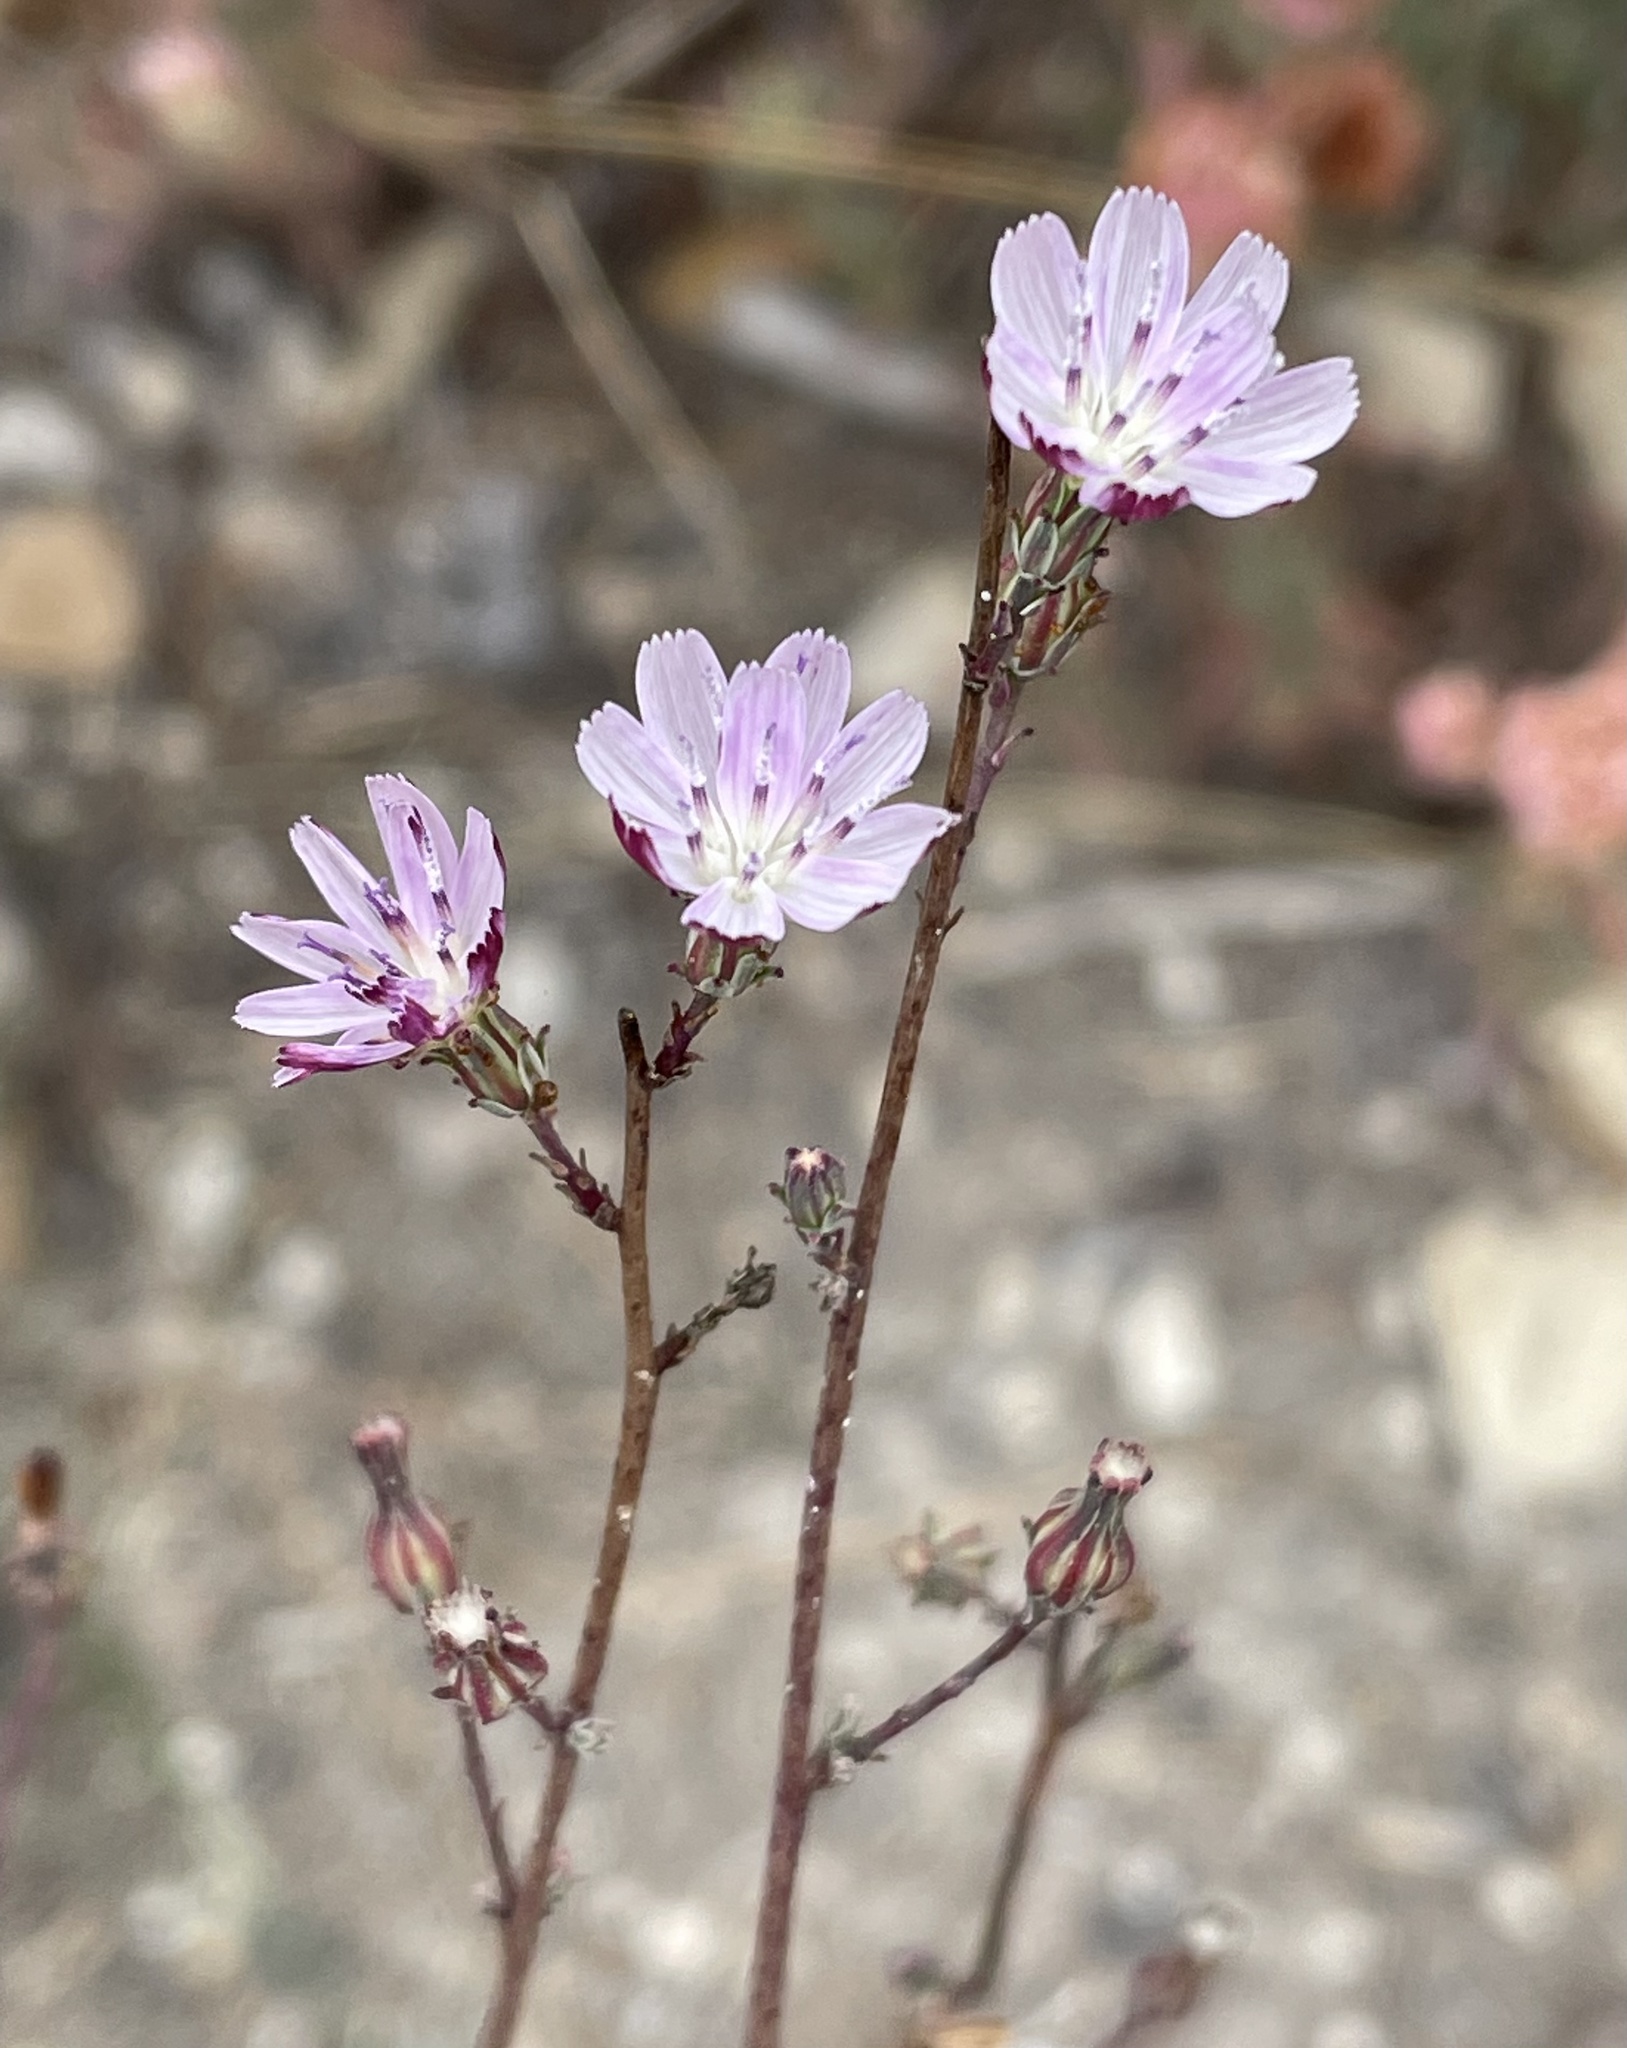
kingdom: Plantae
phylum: Tracheophyta
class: Magnoliopsida
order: Asterales
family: Asteraceae
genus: Stephanomeria
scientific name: Stephanomeria elata
